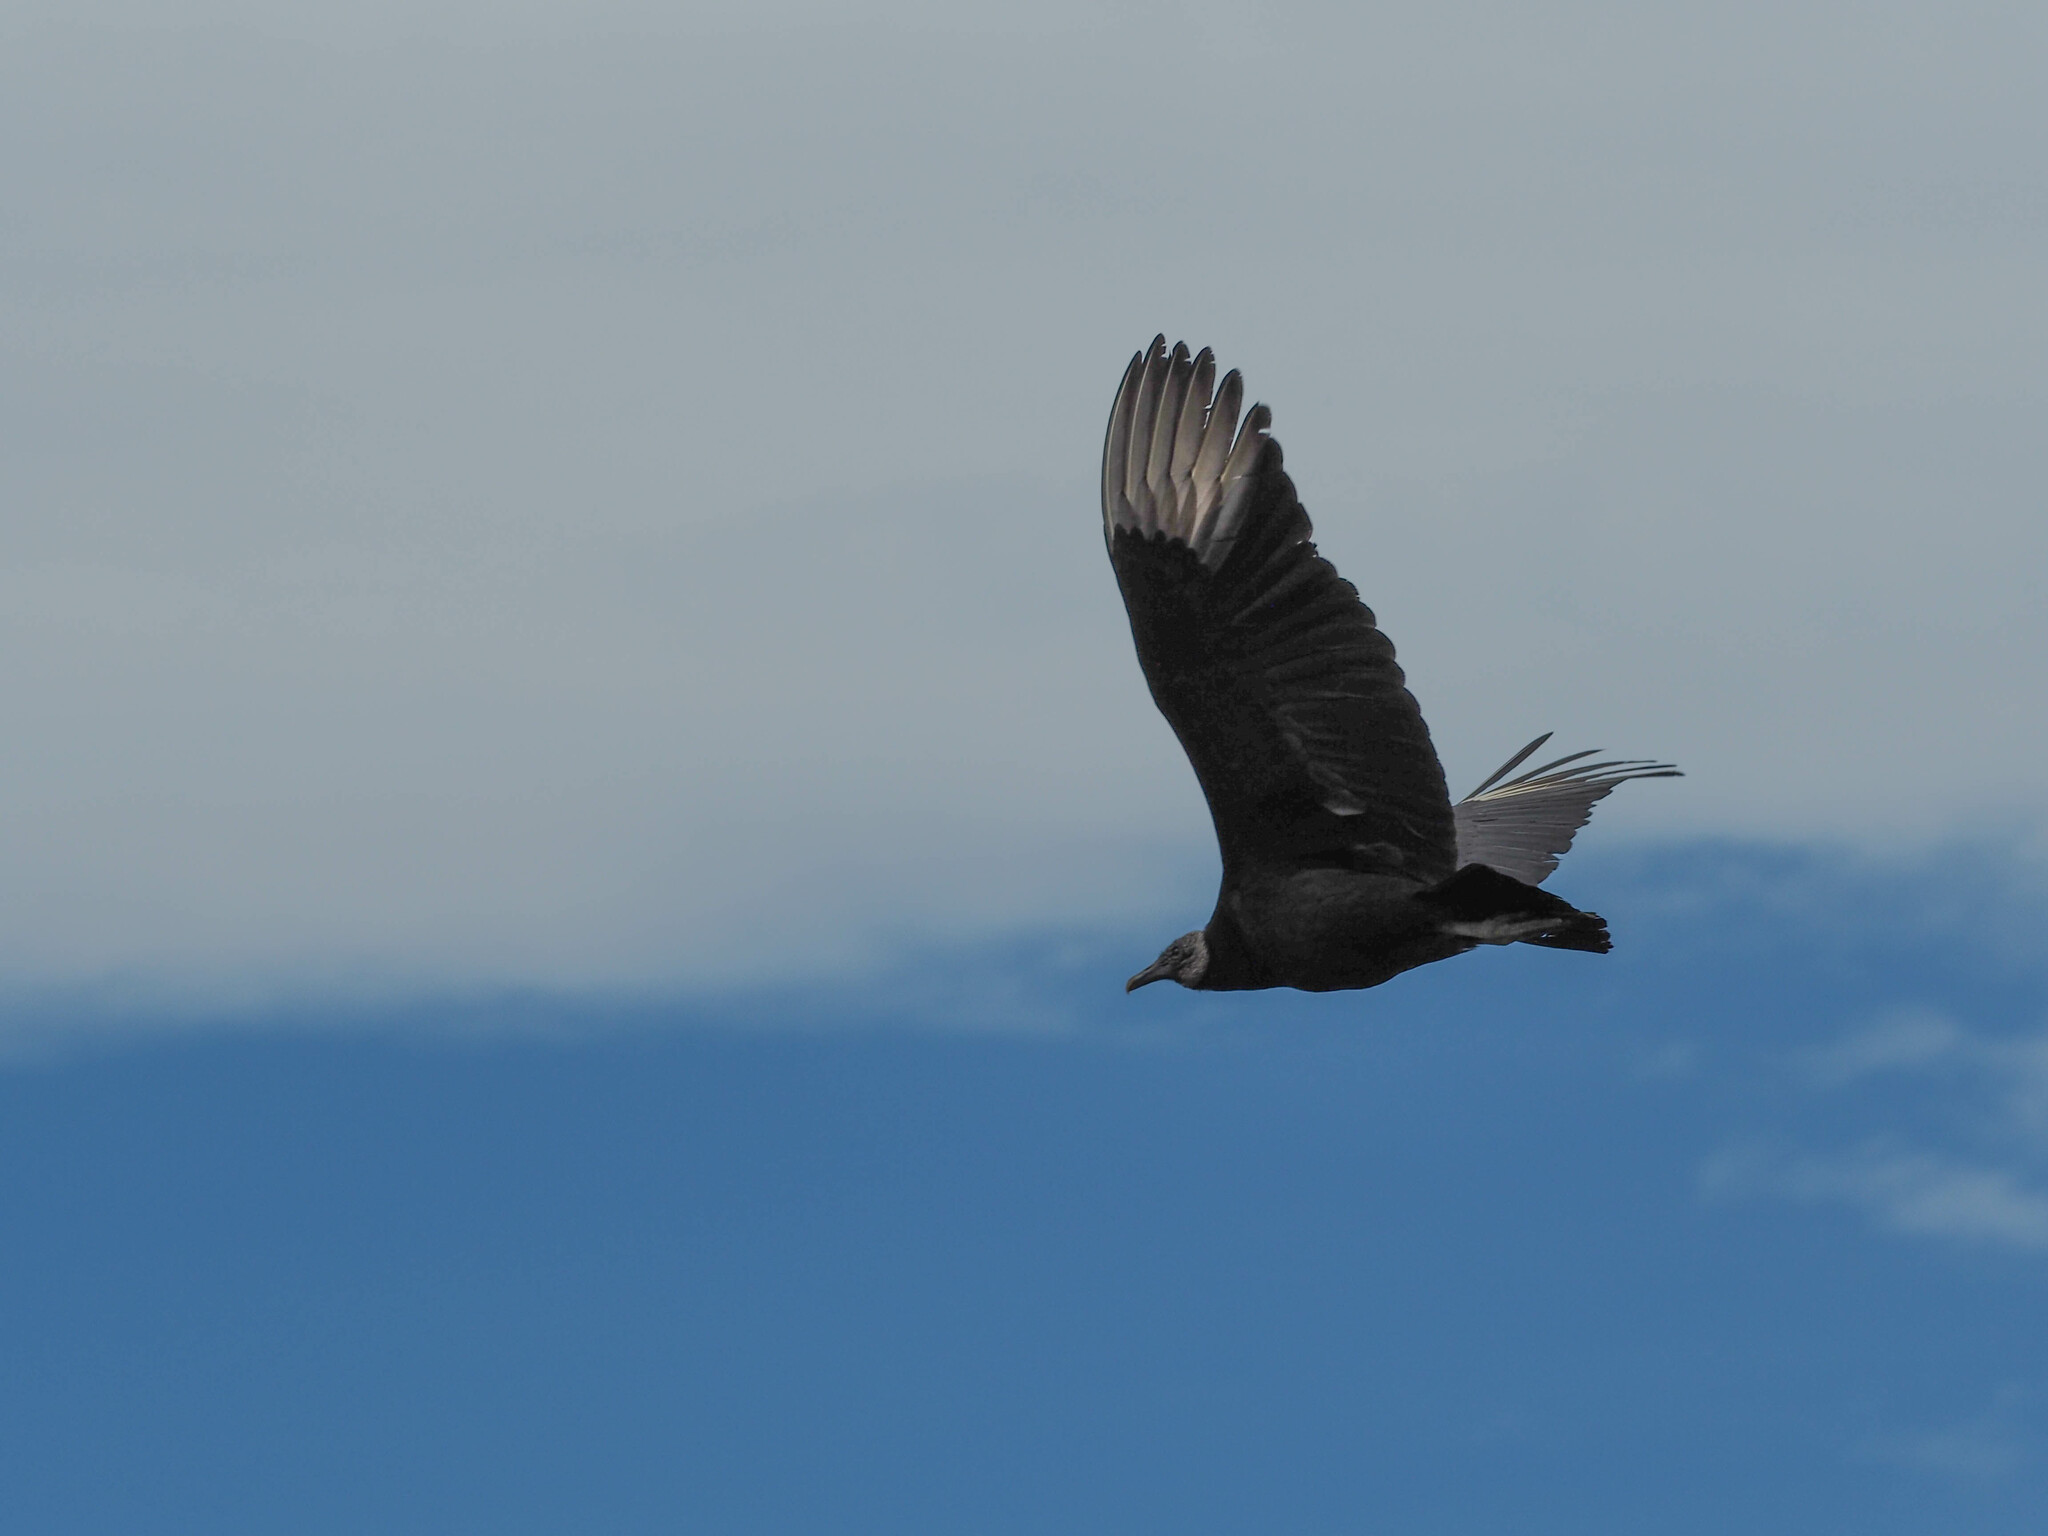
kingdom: Animalia
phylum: Chordata
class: Aves
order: Accipitriformes
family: Cathartidae
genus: Coragyps
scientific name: Coragyps atratus
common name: Black vulture
